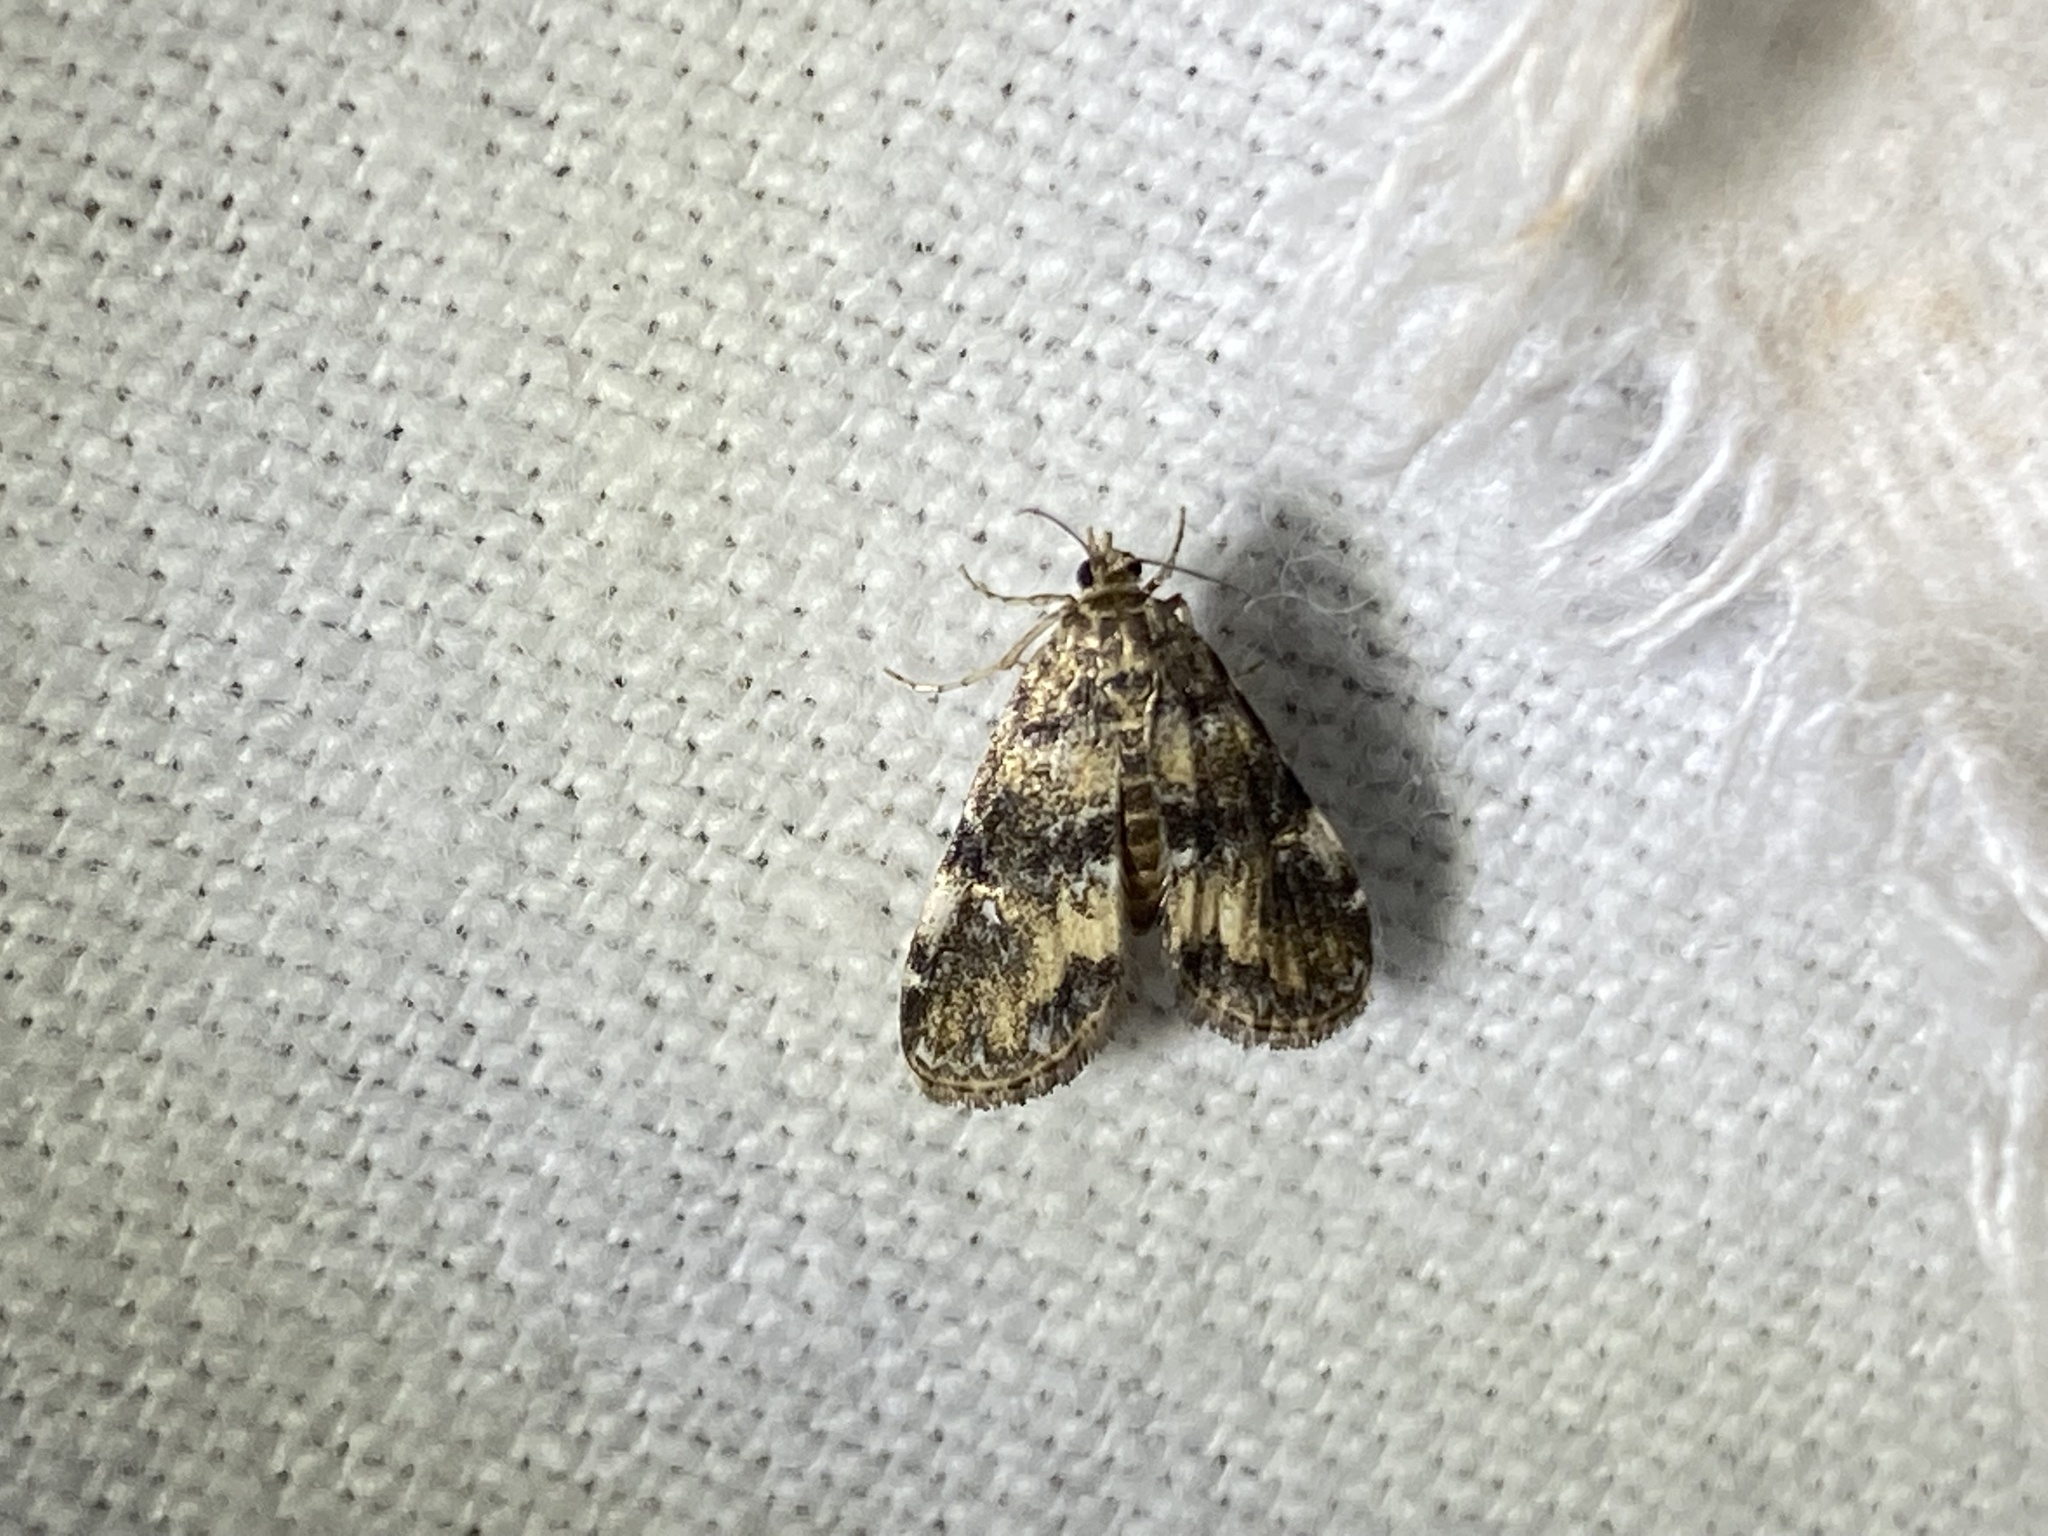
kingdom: Animalia
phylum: Arthropoda
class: Insecta
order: Lepidoptera
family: Crambidae
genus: Elophila
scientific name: Elophila obliteralis
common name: Waterlily leafcutter moth
